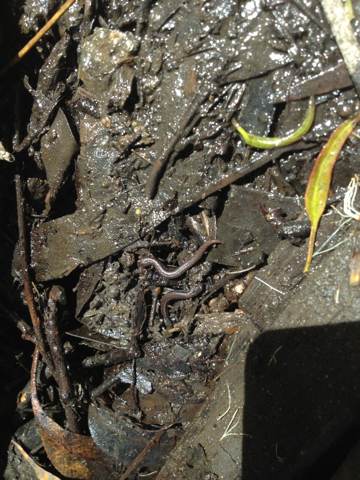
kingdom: Animalia
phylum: Chordata
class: Amphibia
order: Caudata
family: Plethodontidae
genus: Batrachoseps
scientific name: Batrachoseps attenuatus
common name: California slender salamander
